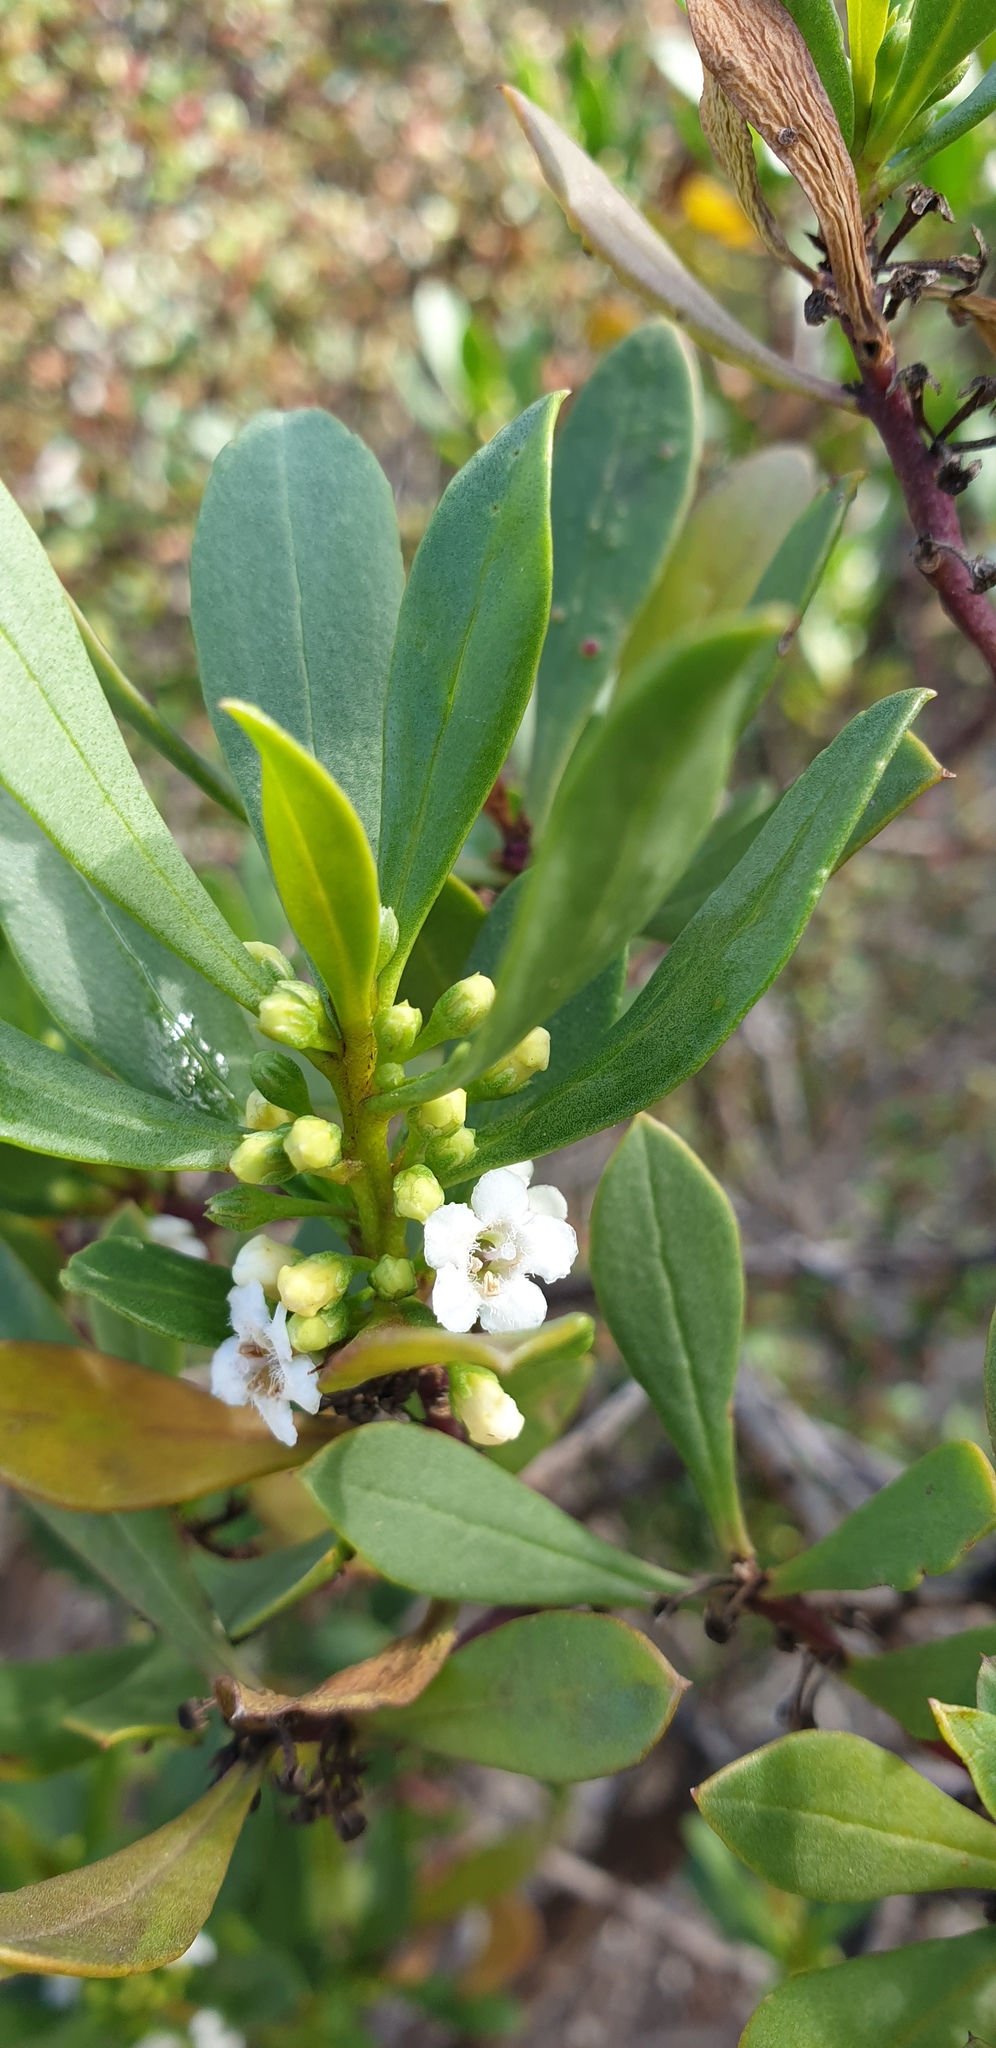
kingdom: Plantae
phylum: Tracheophyta
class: Magnoliopsida
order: Lamiales
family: Scrophulariaceae
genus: Myoporum
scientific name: Myoporum insulare
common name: Common boobialla
